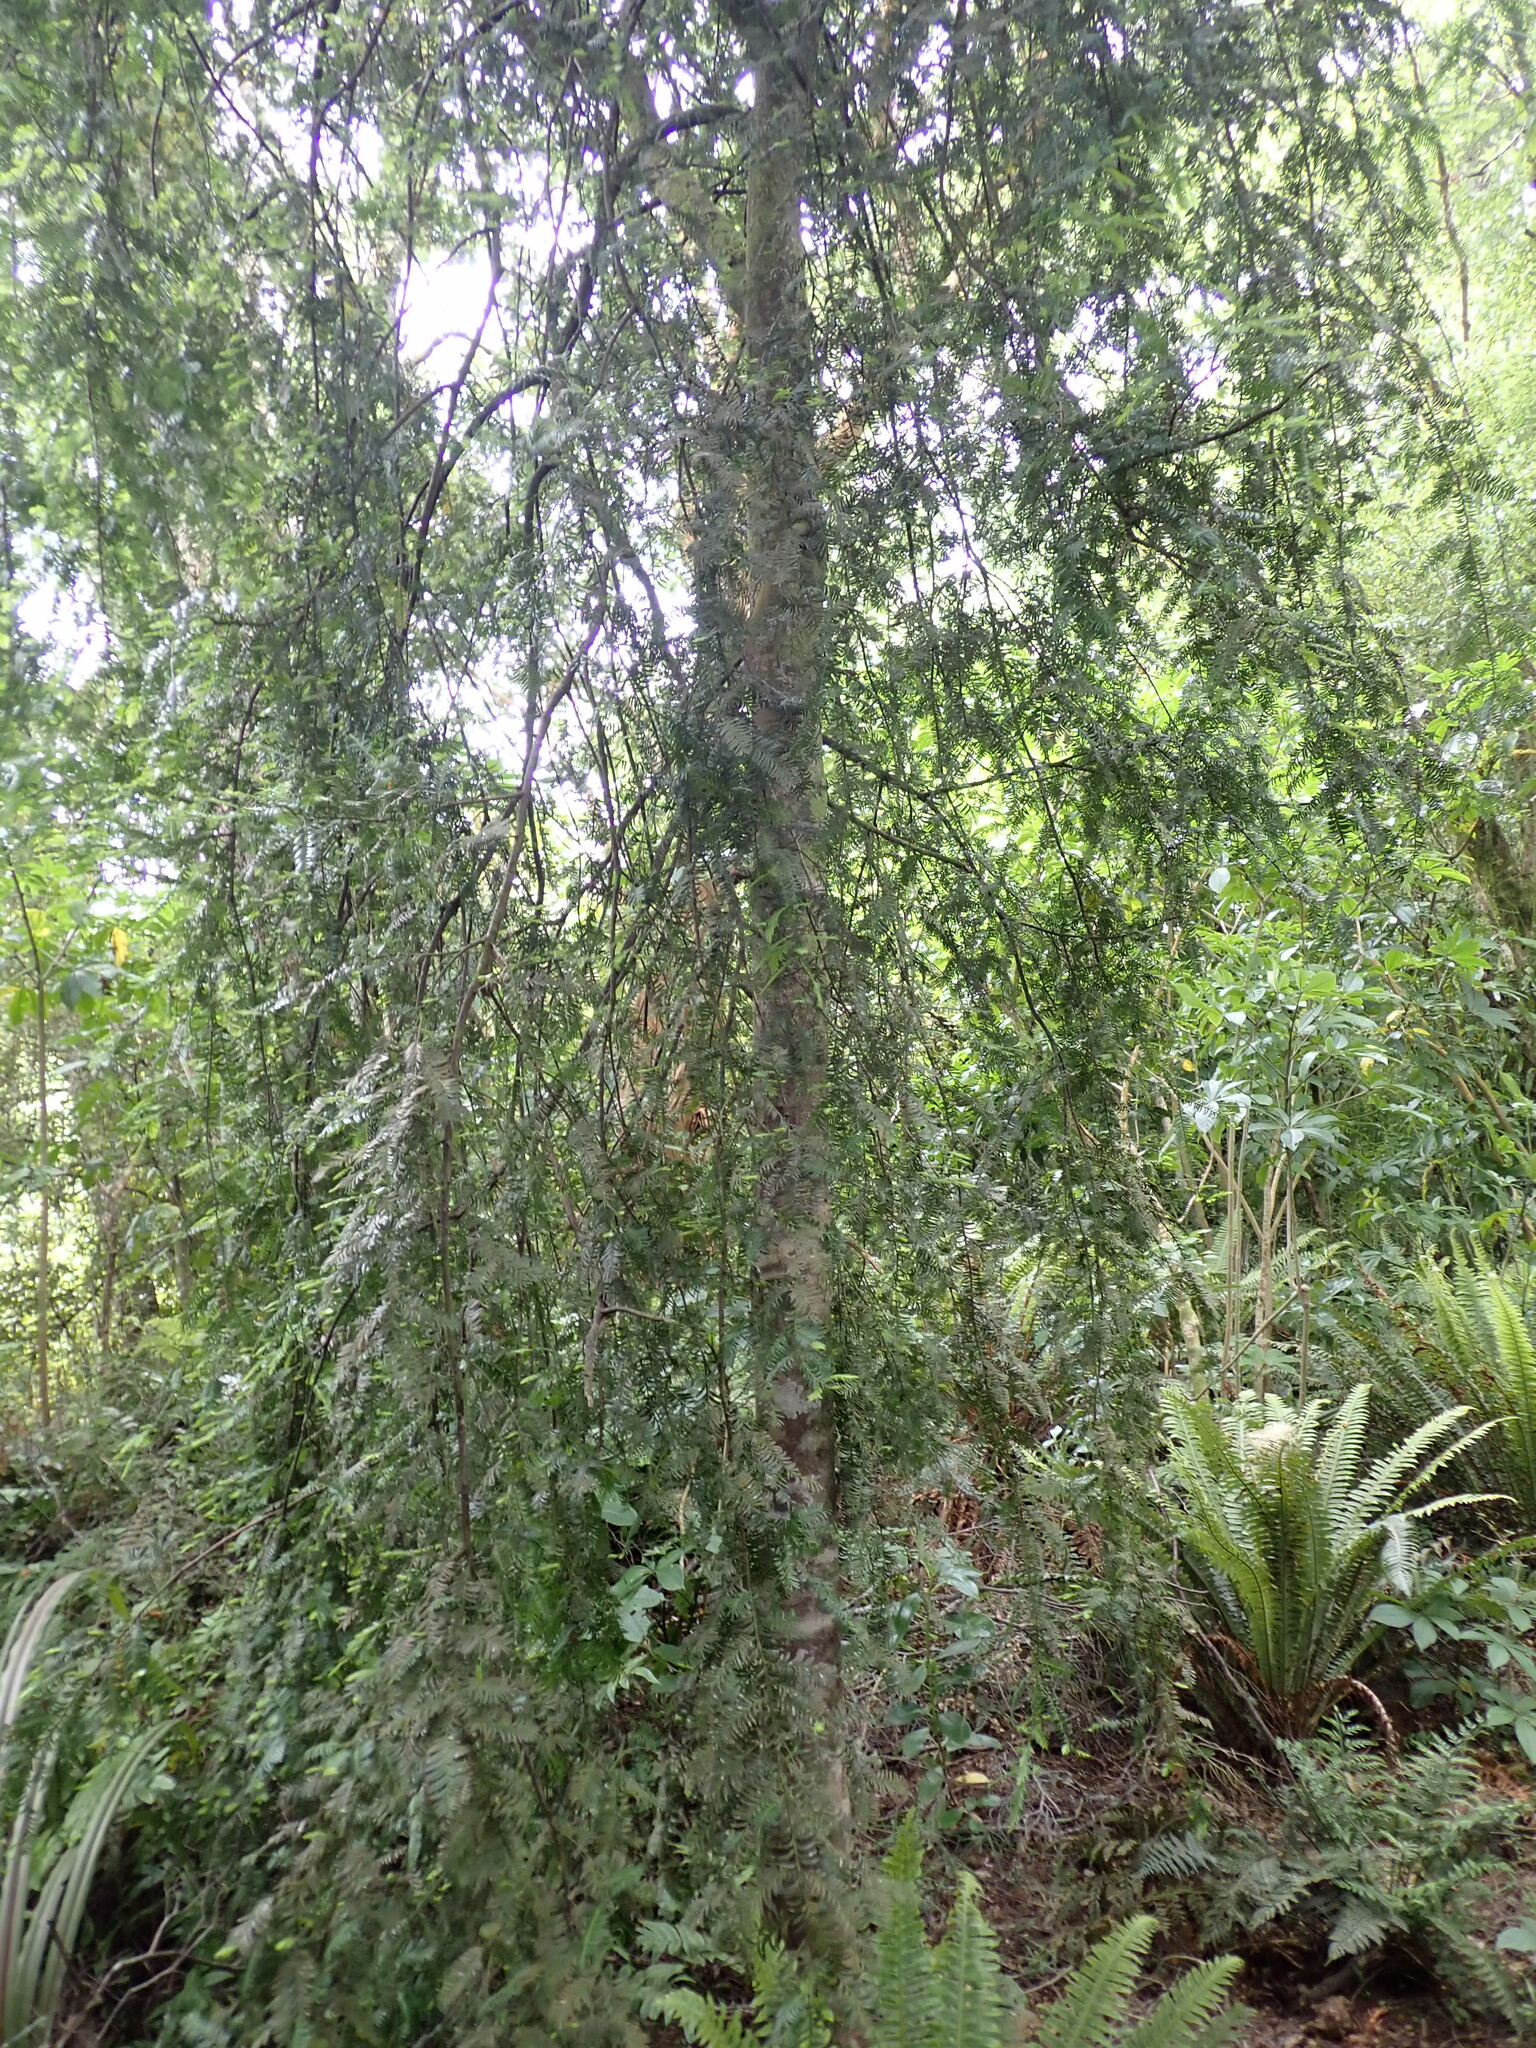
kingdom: Plantae
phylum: Tracheophyta
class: Pinopsida
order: Pinales
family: Podocarpaceae
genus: Prumnopitys
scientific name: Prumnopitys ferruginea
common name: Brown pine
